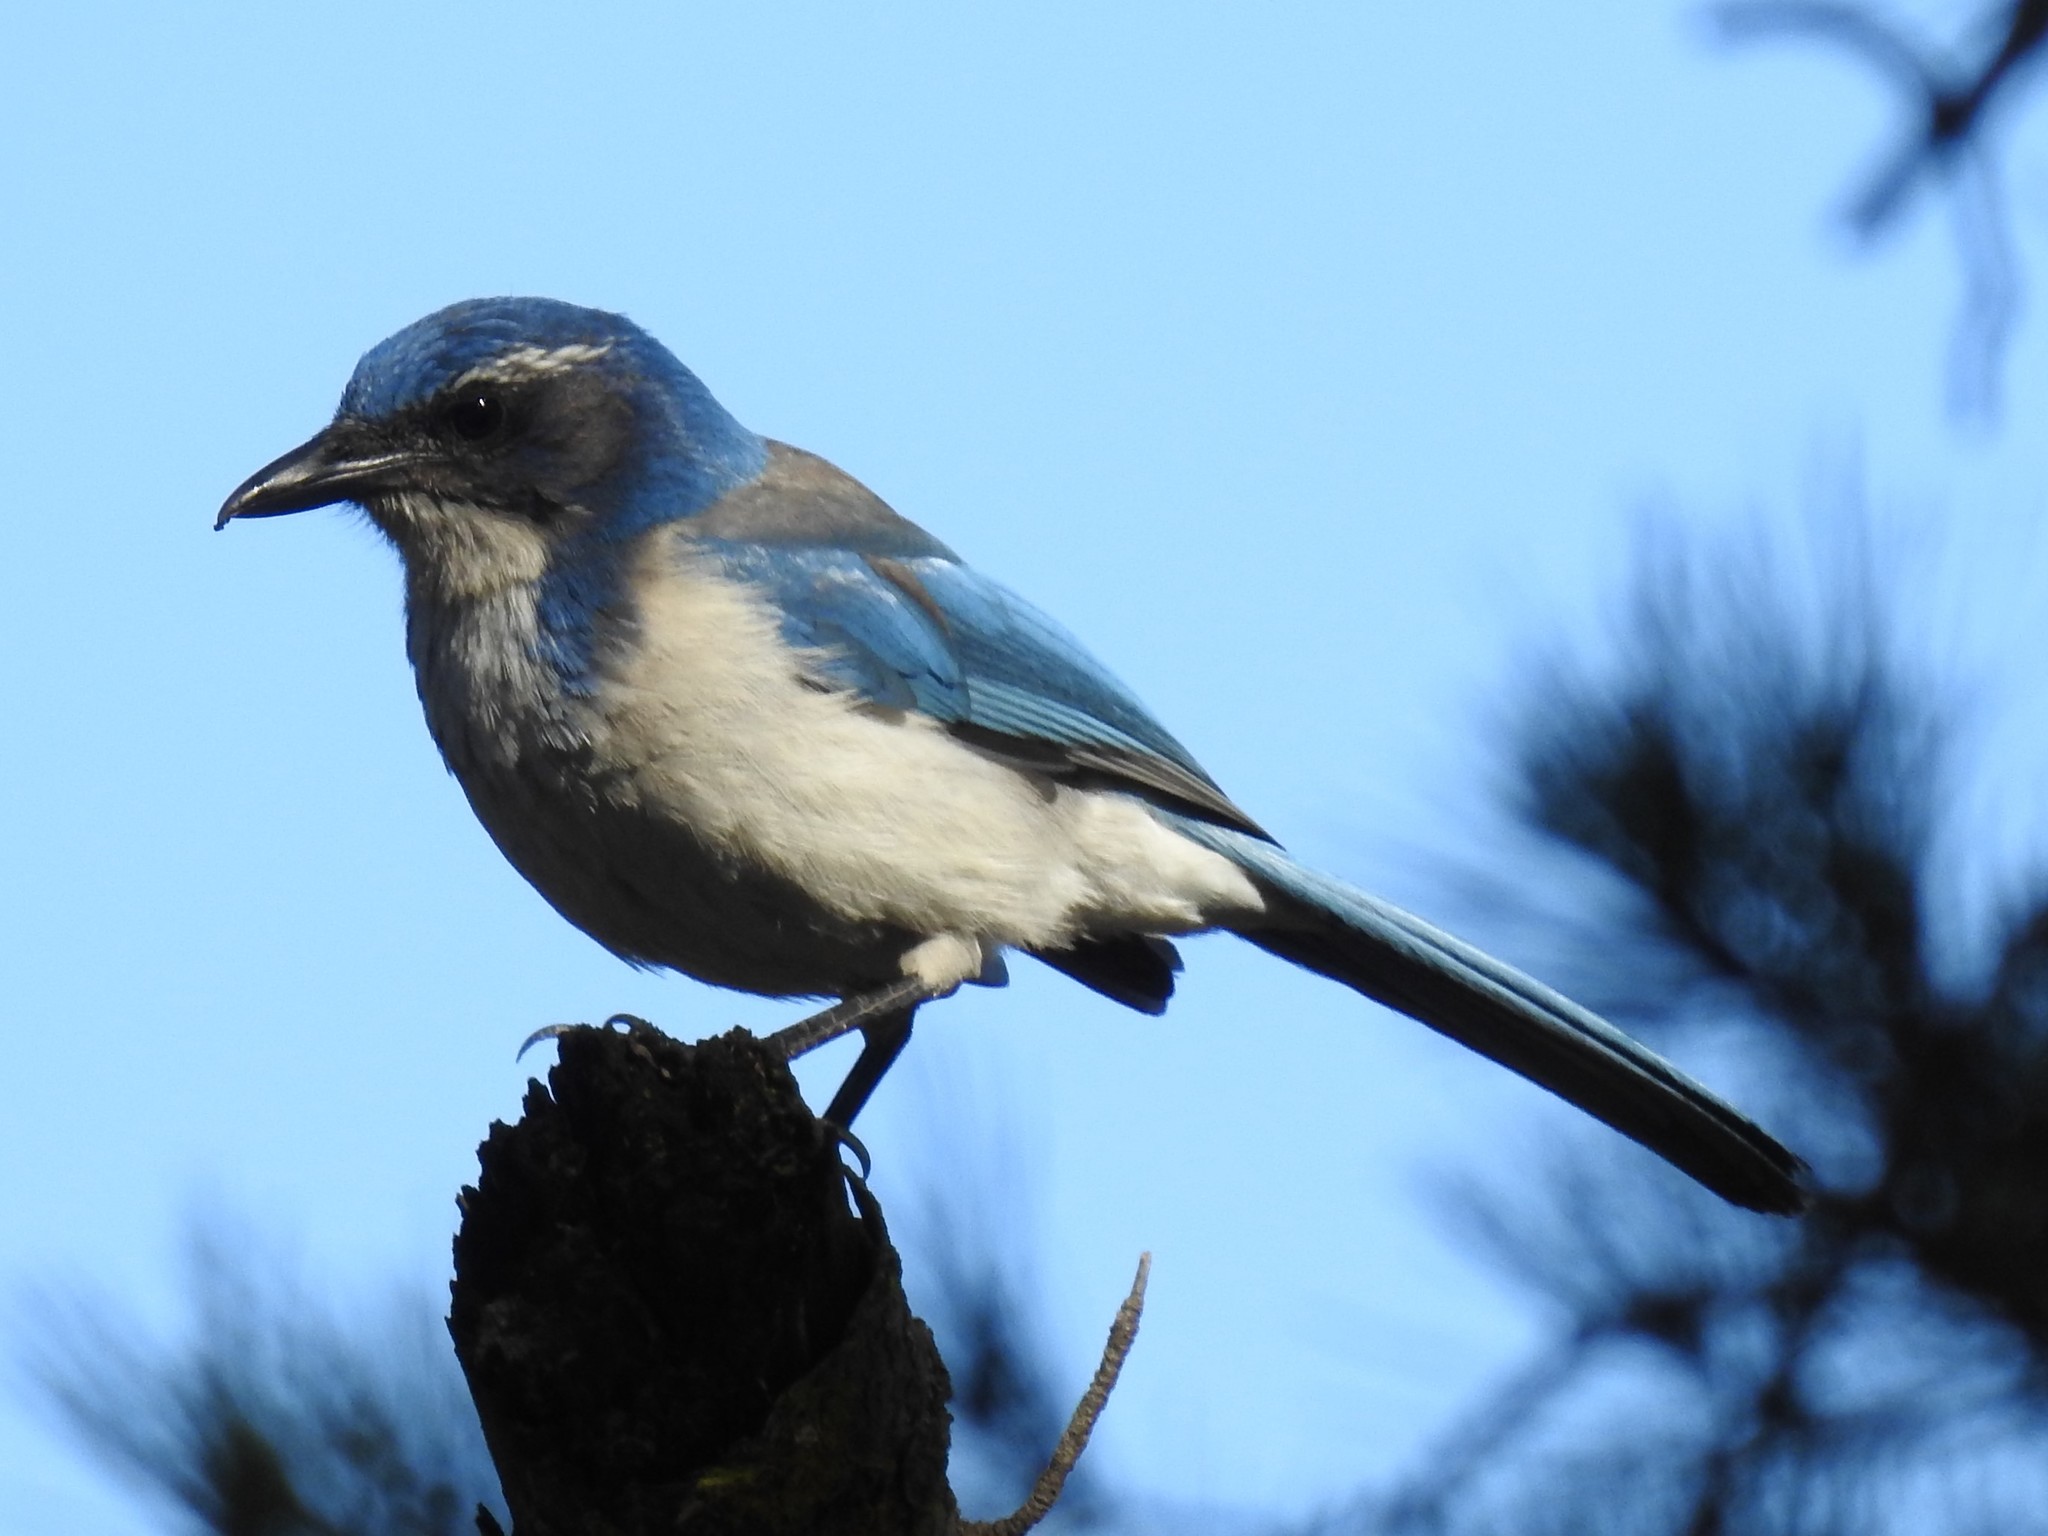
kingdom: Animalia
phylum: Chordata
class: Aves
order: Passeriformes
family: Corvidae
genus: Aphelocoma
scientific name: Aphelocoma californica
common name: California scrub-jay
